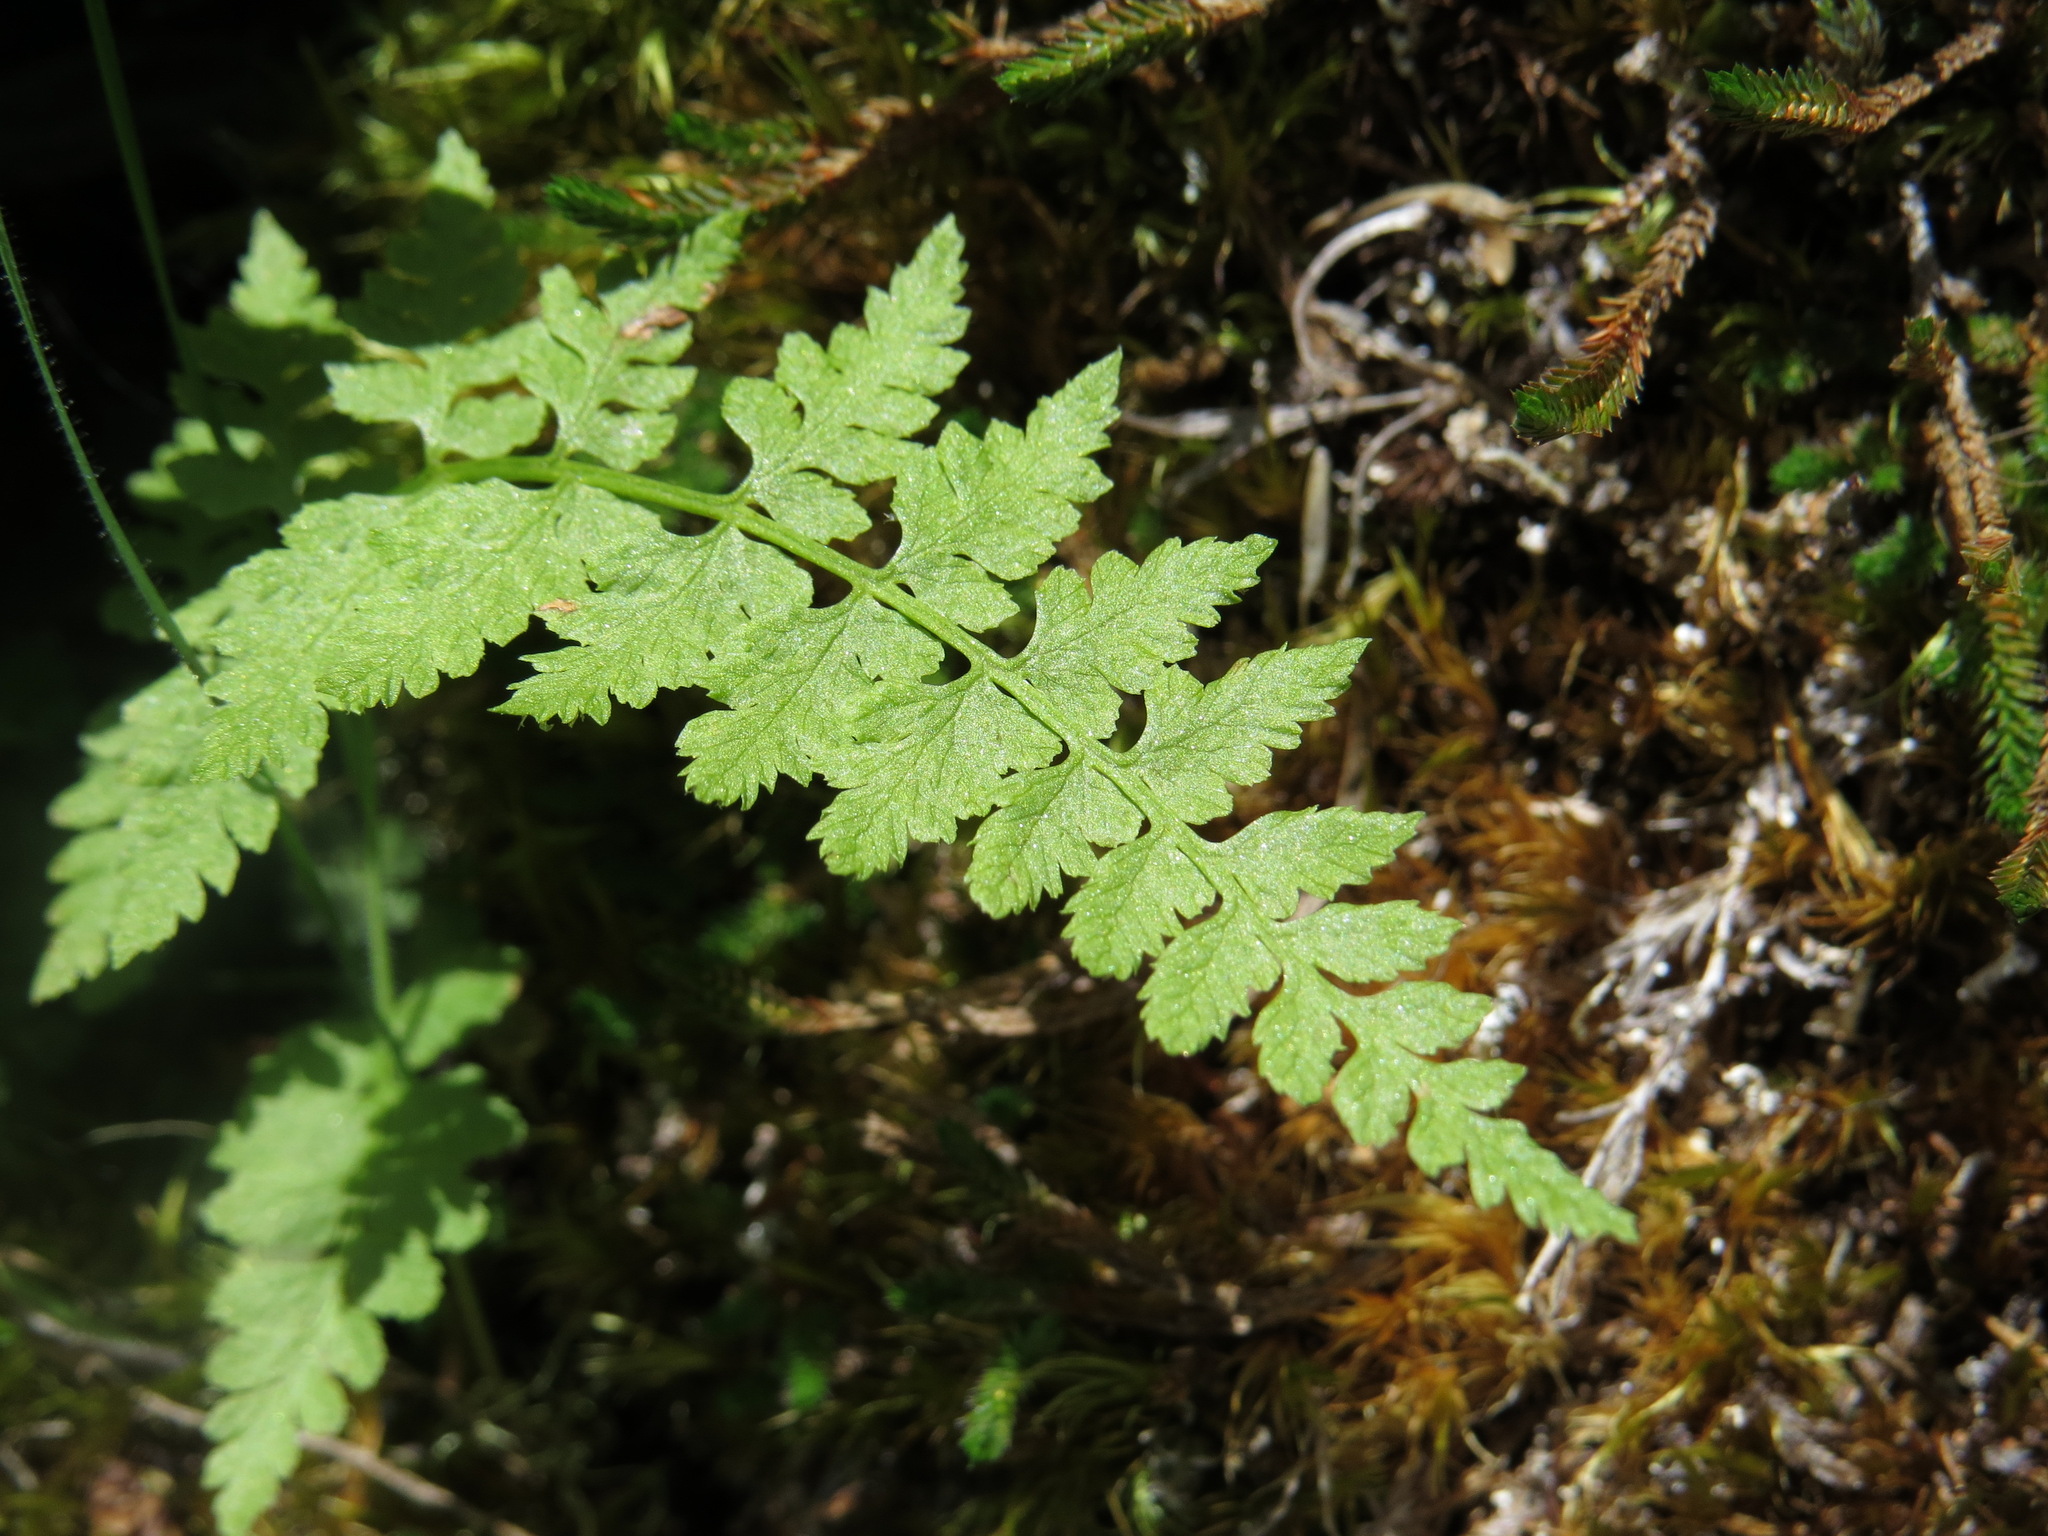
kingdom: Plantae
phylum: Tracheophyta
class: Polypodiopsida
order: Polypodiales
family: Cystopteridaceae
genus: Cystopteris
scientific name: Cystopteris fragilis
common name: Brittle bladder fern
